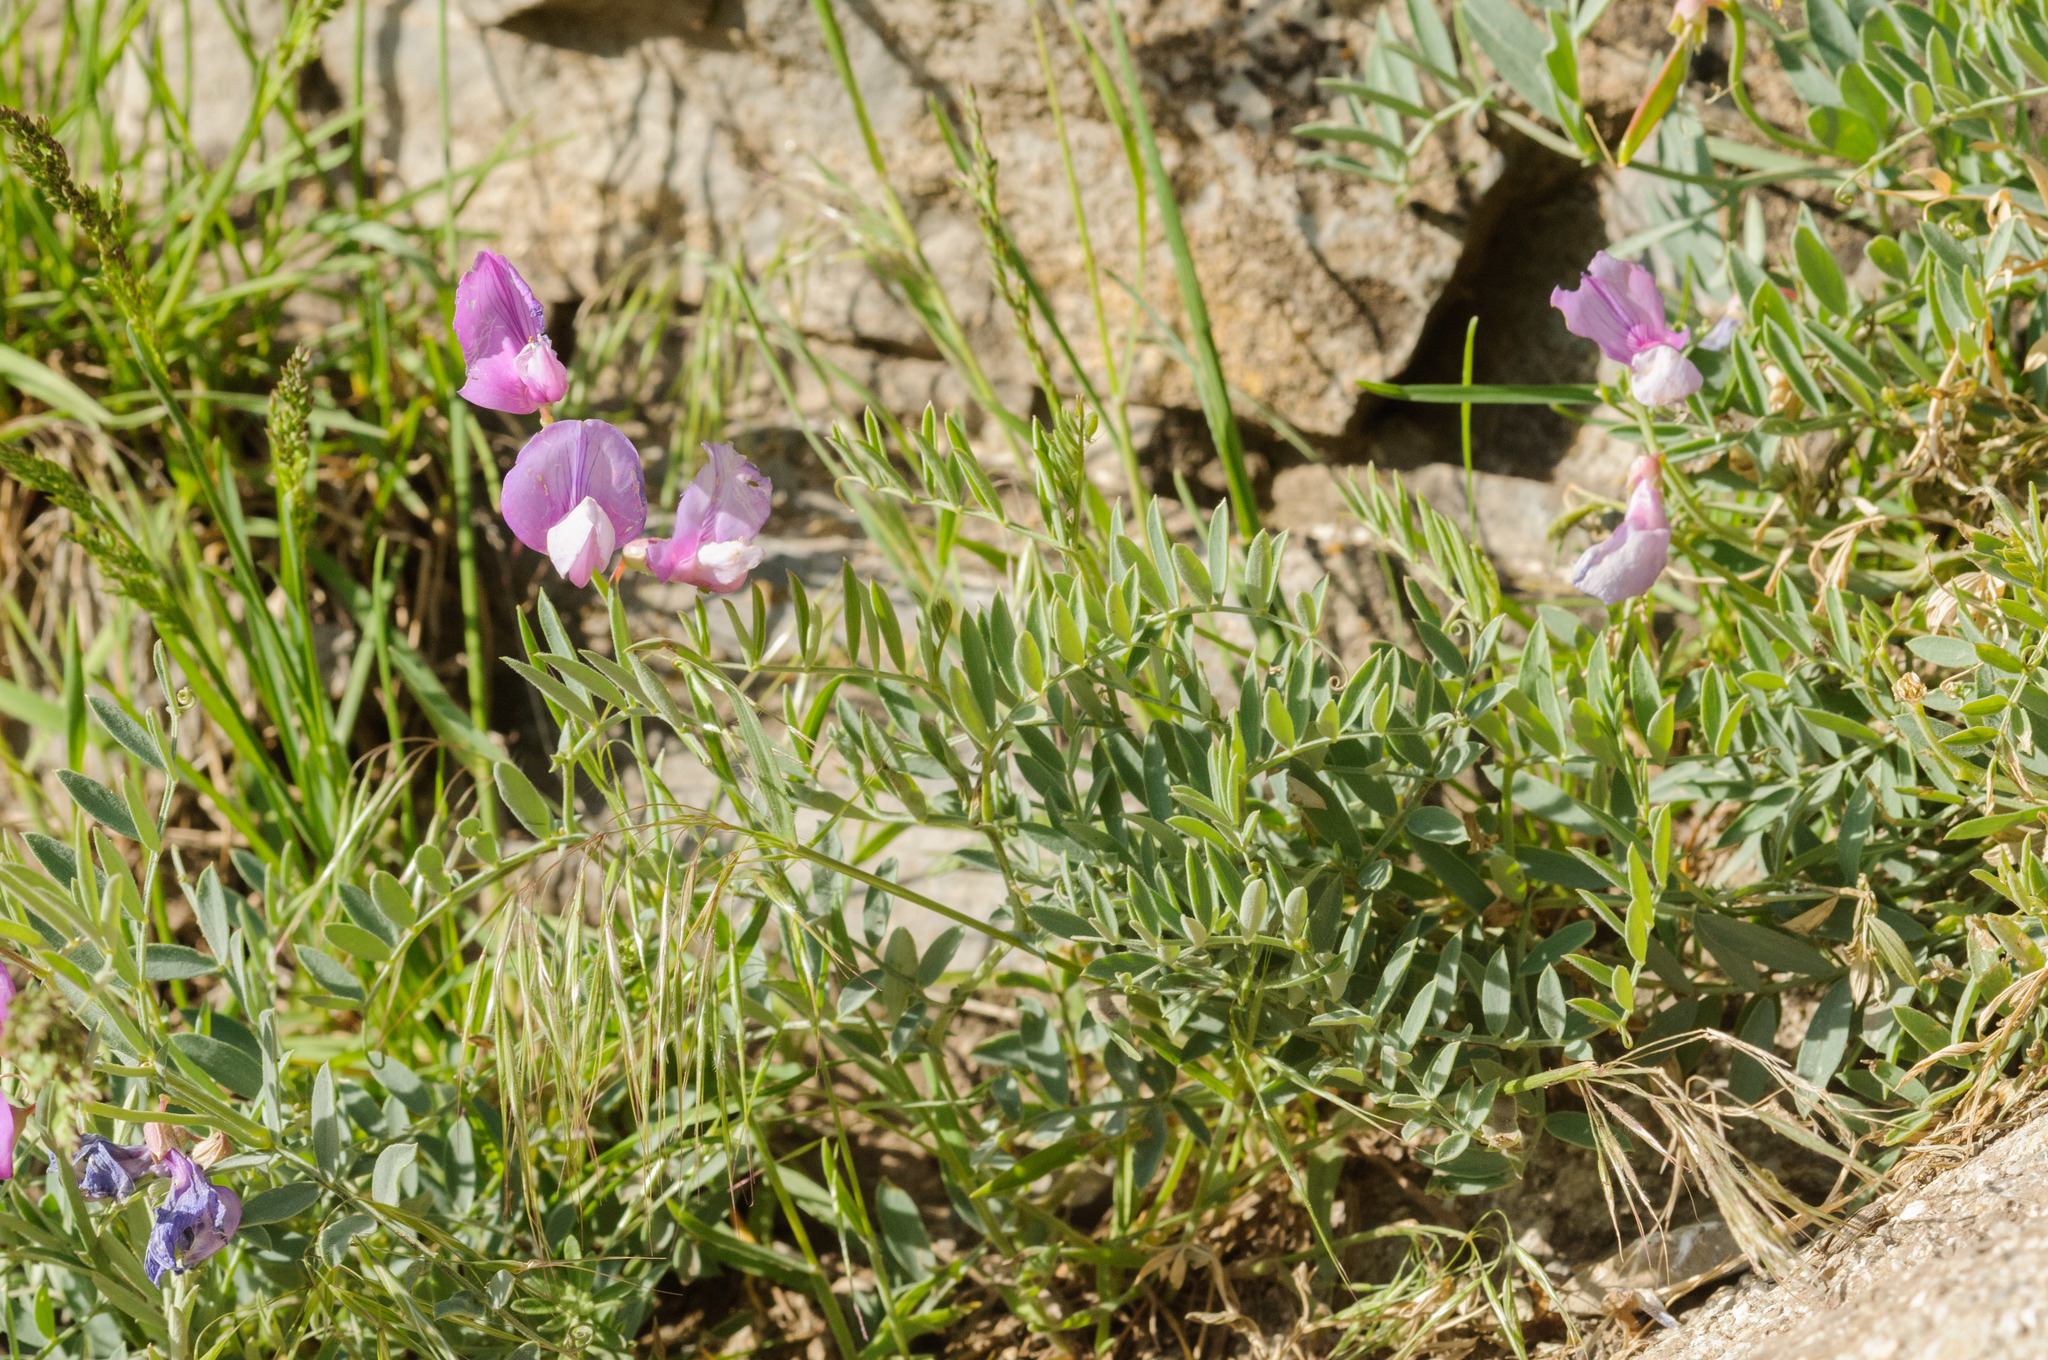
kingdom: Plantae
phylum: Tracheophyta
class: Magnoliopsida
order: Fabales
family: Fabaceae
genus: Lathyrus
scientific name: Lathyrus brachycalyx
